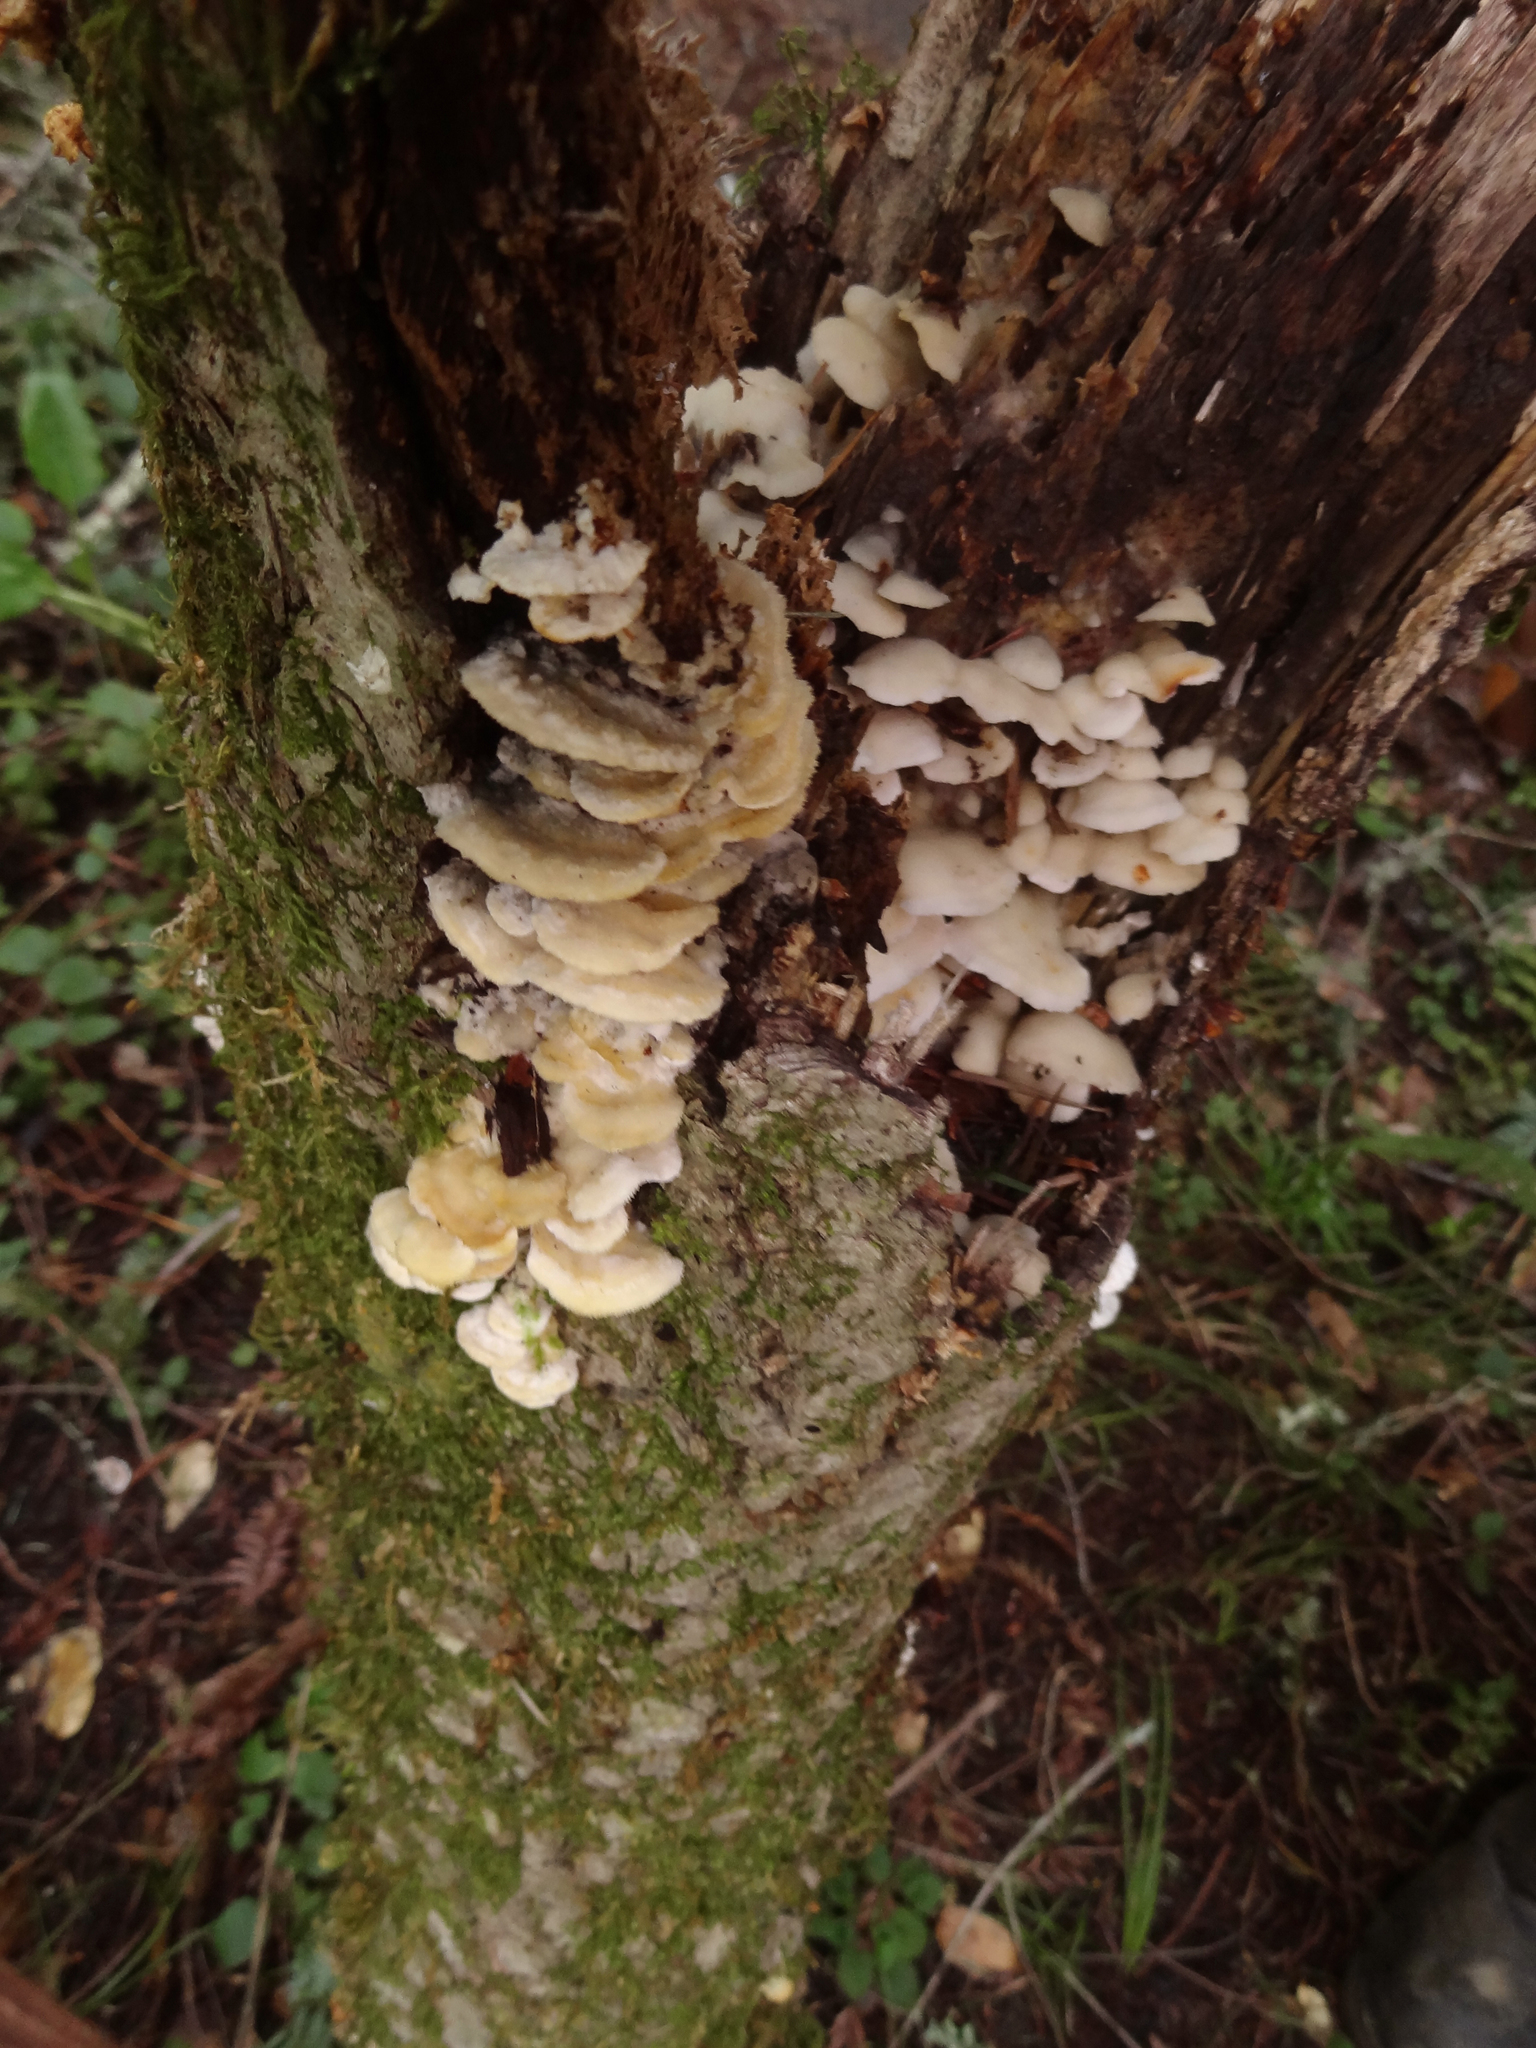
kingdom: Fungi
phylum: Basidiomycota
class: Agaricomycetes
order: Polyporales
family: Irpicaceae
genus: Vitreoporus
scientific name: Vitreoporus dichrous
